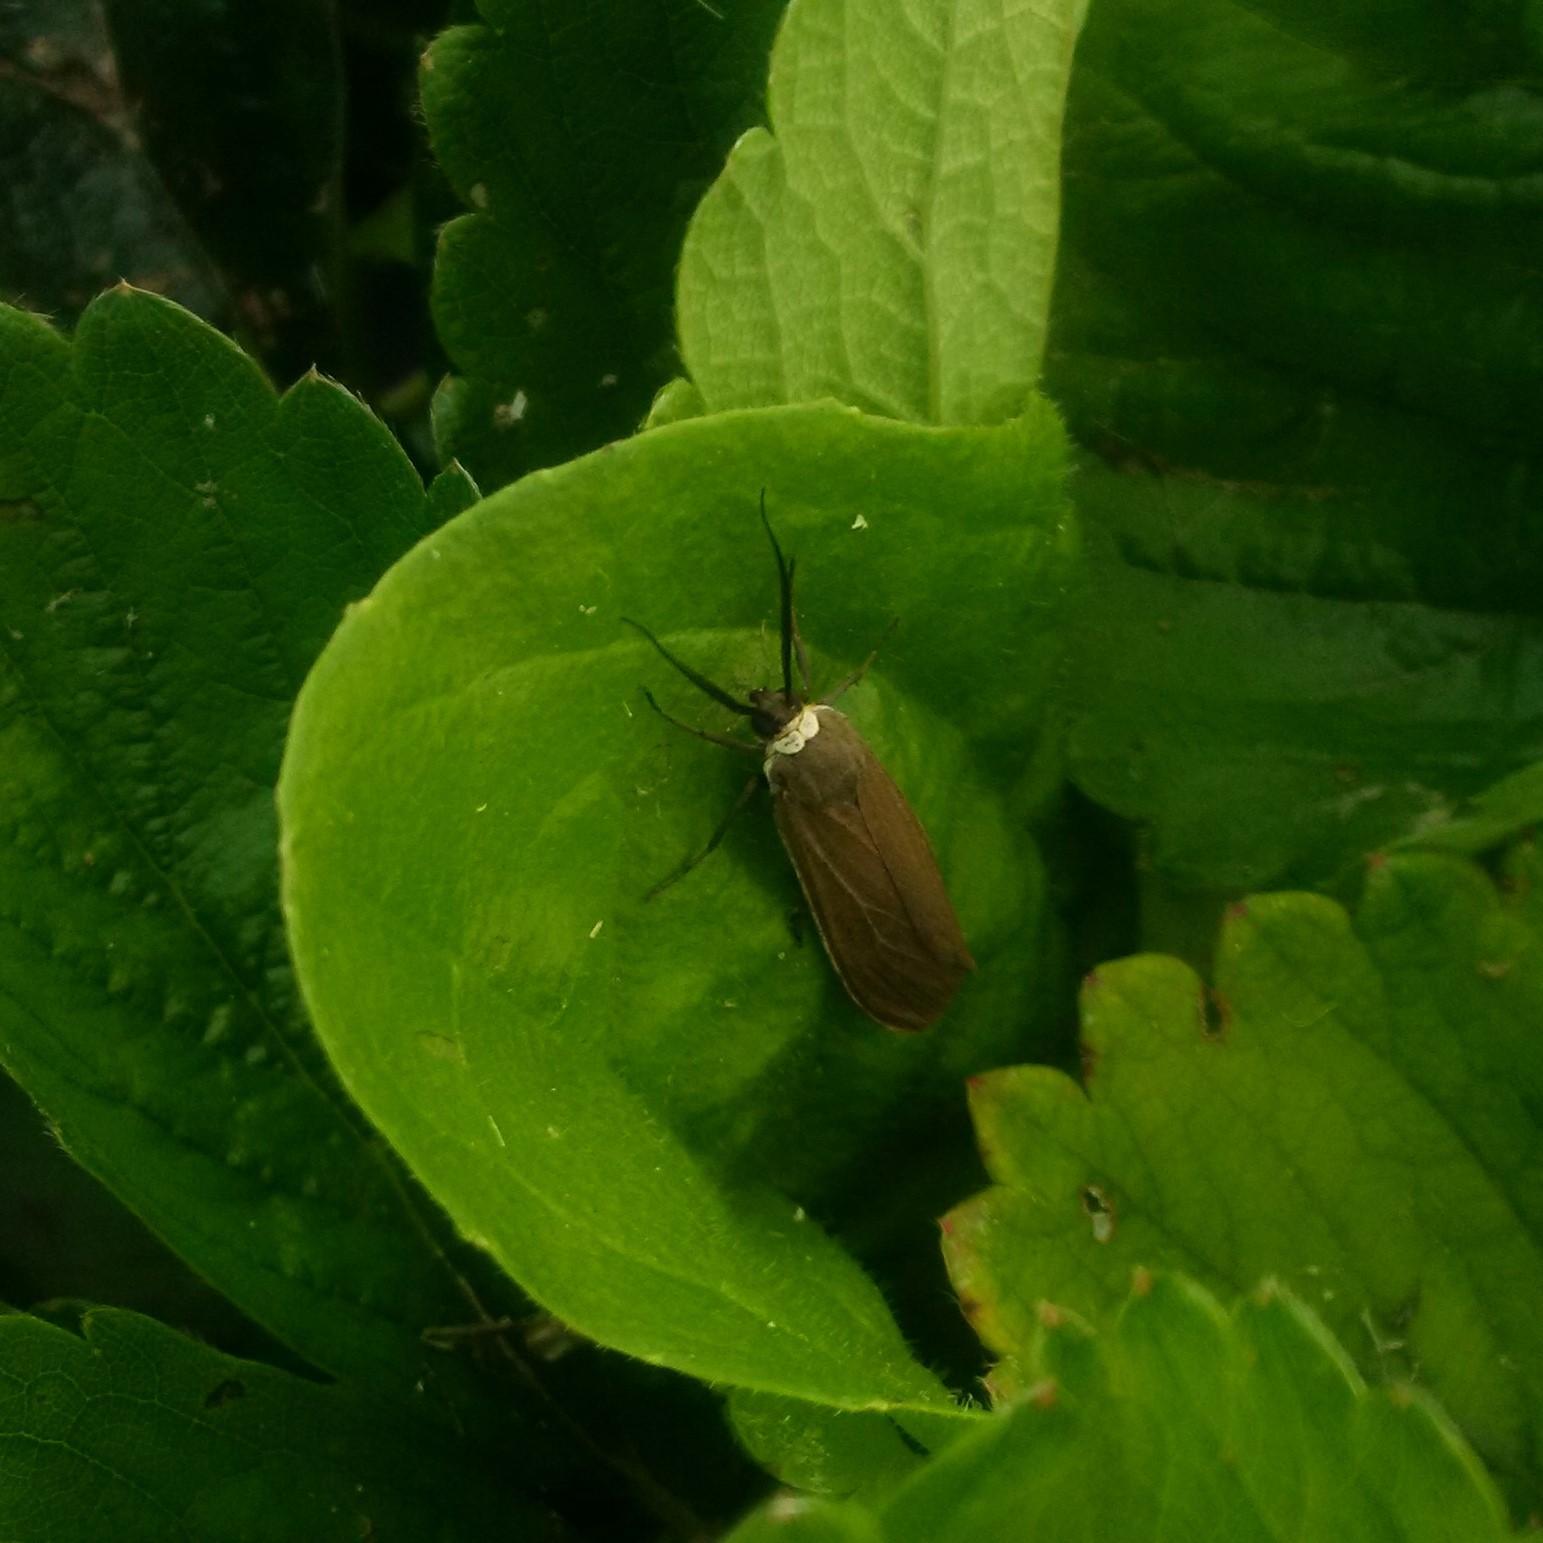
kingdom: Animalia
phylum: Arthropoda
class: Insecta
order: Lepidoptera
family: Erebidae
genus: Cisseps
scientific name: Cisseps fulvicollis
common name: Yellow-collared scape moth
